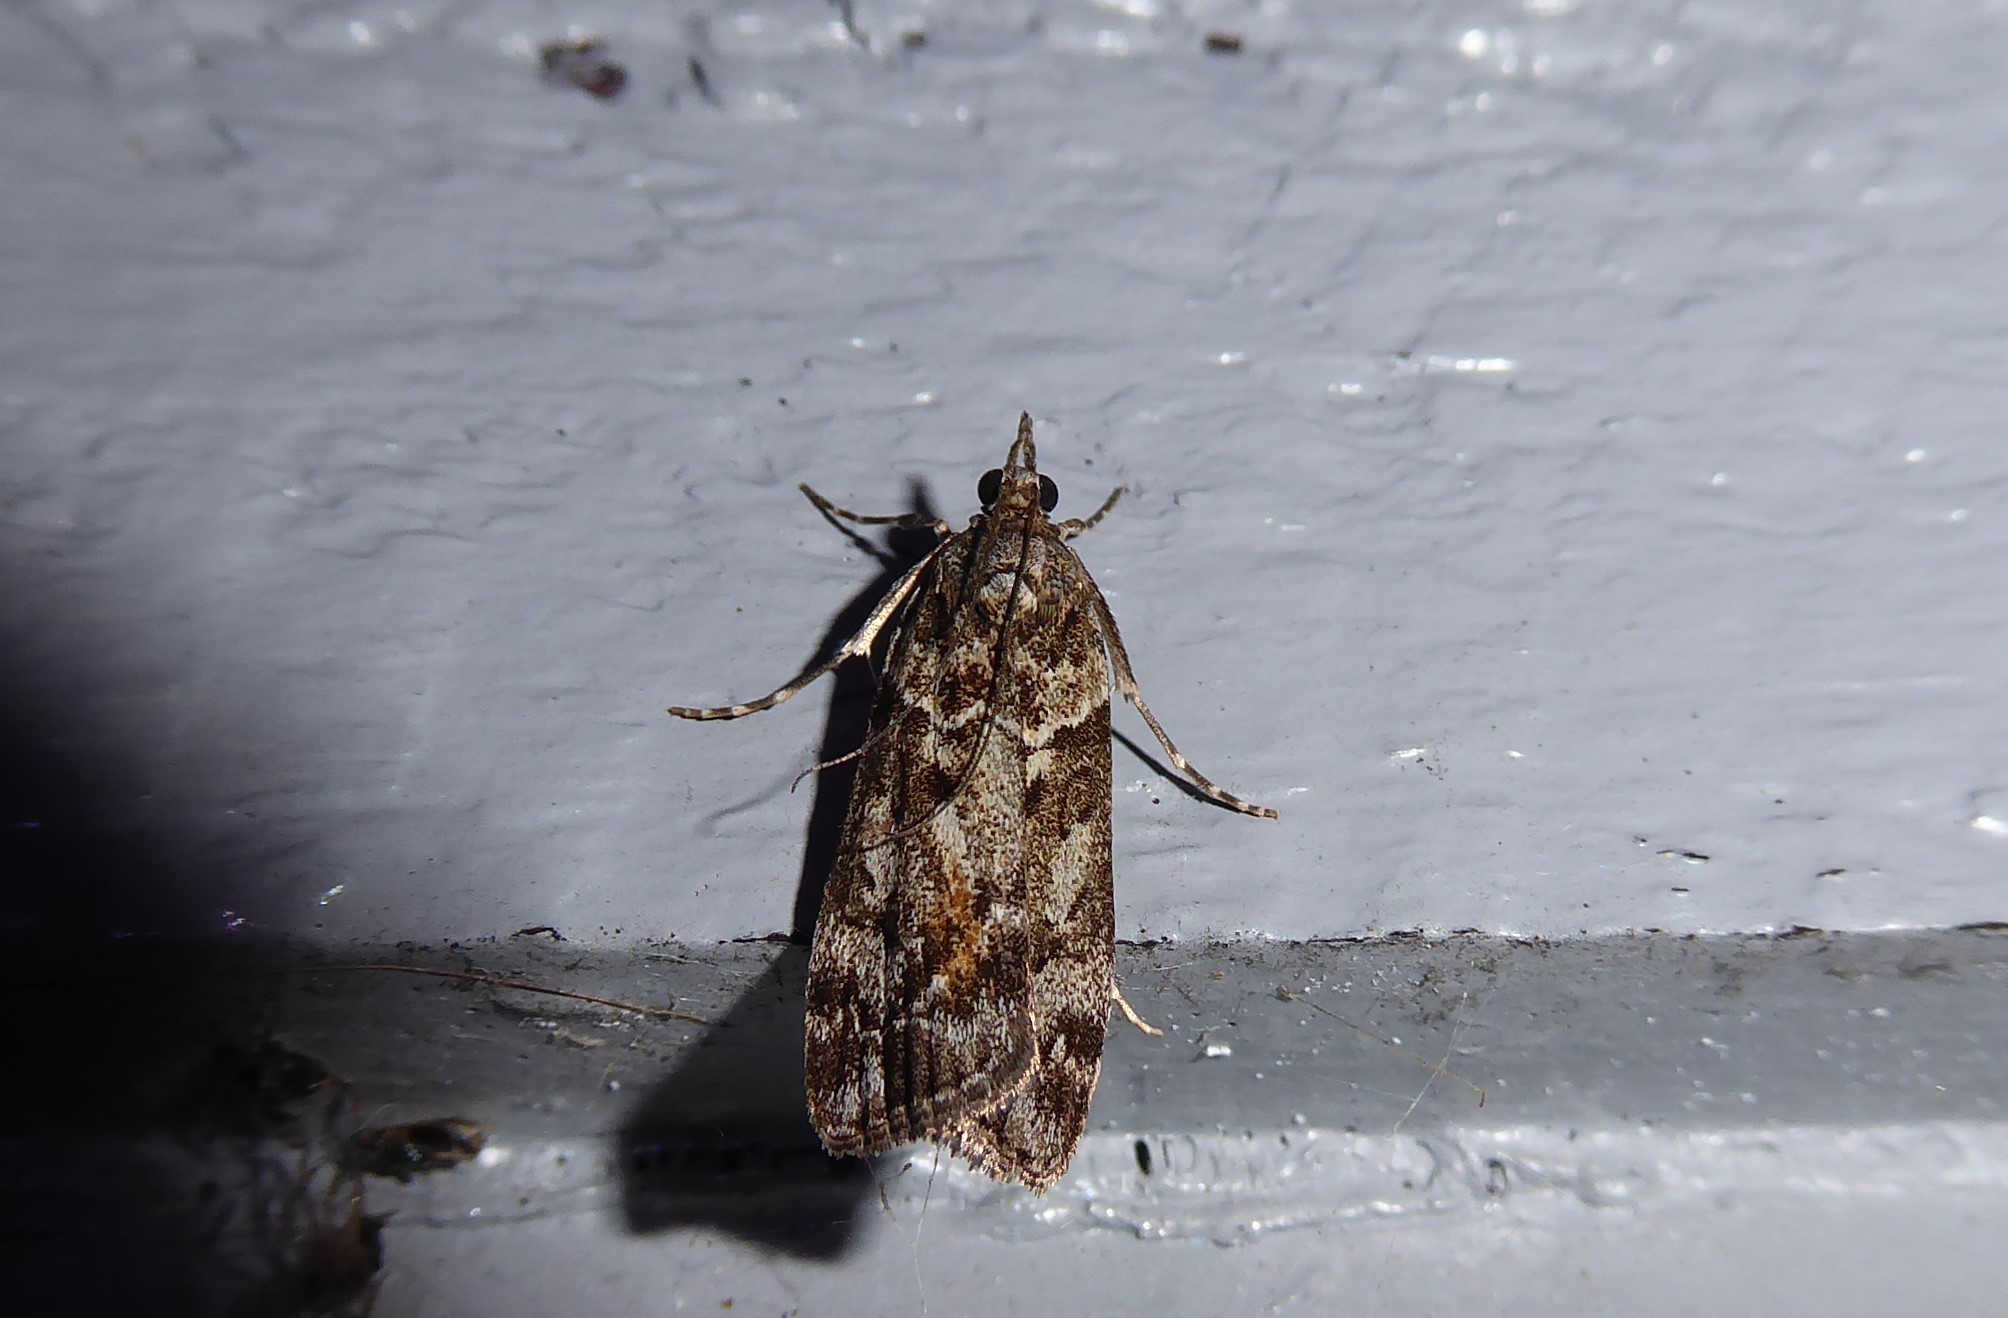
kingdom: Animalia
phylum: Arthropoda
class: Insecta
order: Lepidoptera
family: Crambidae
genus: Eudonia
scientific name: Eudonia submarginalis
